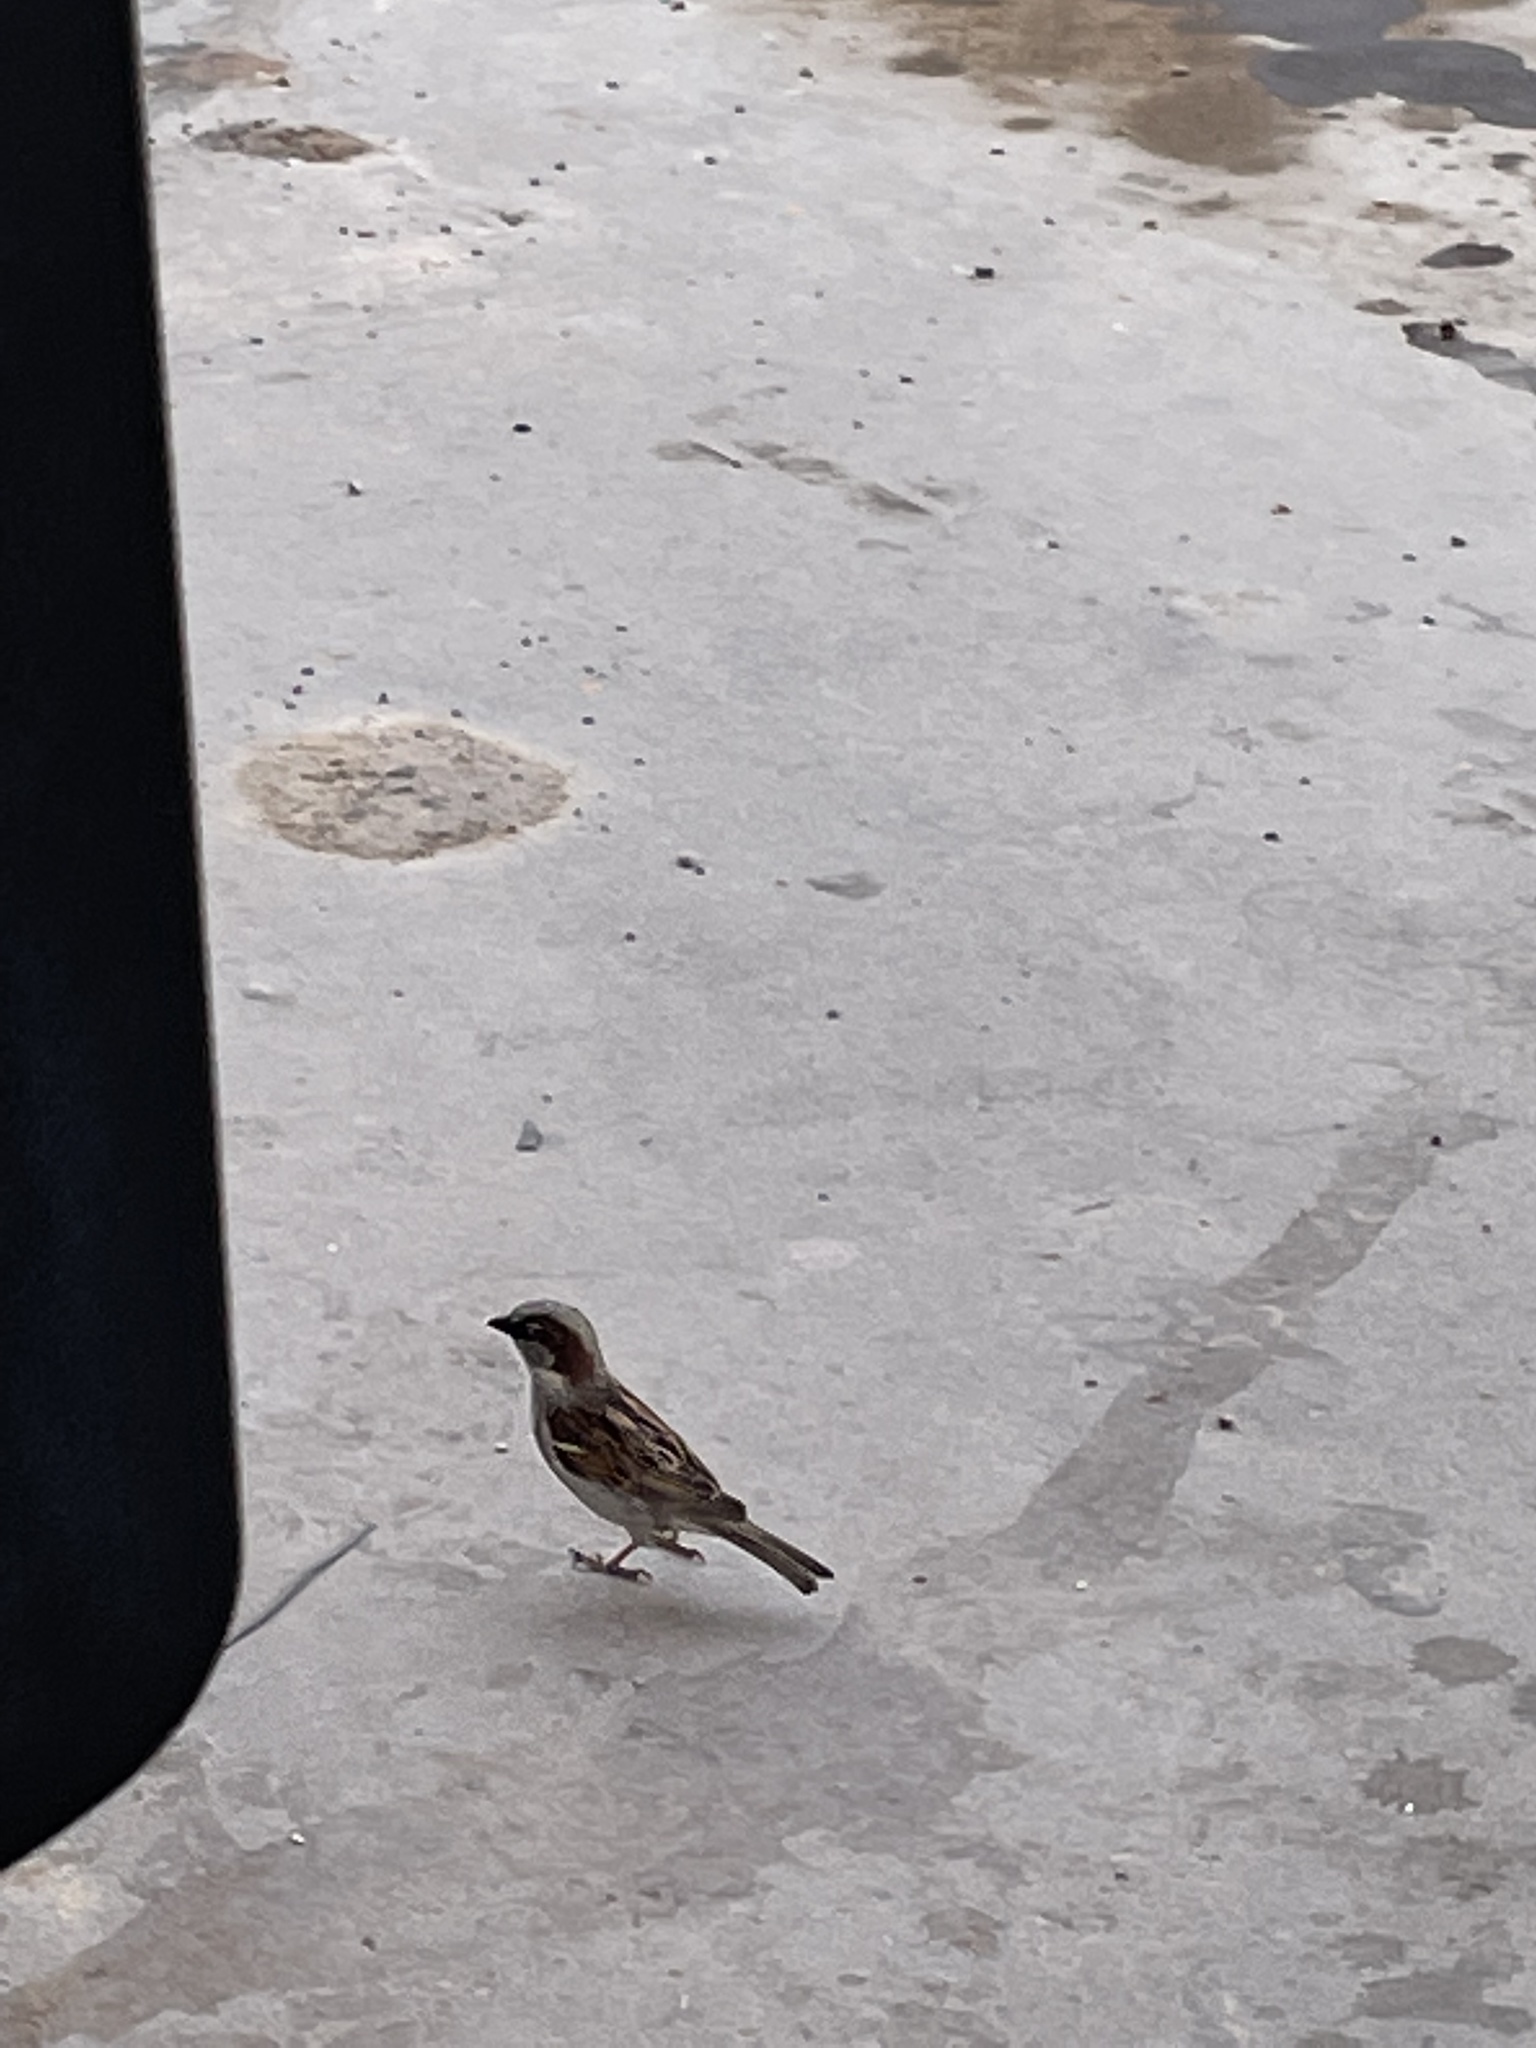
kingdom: Animalia
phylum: Chordata
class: Aves
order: Passeriformes
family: Passeridae
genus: Passer
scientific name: Passer domesticus
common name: House sparrow
